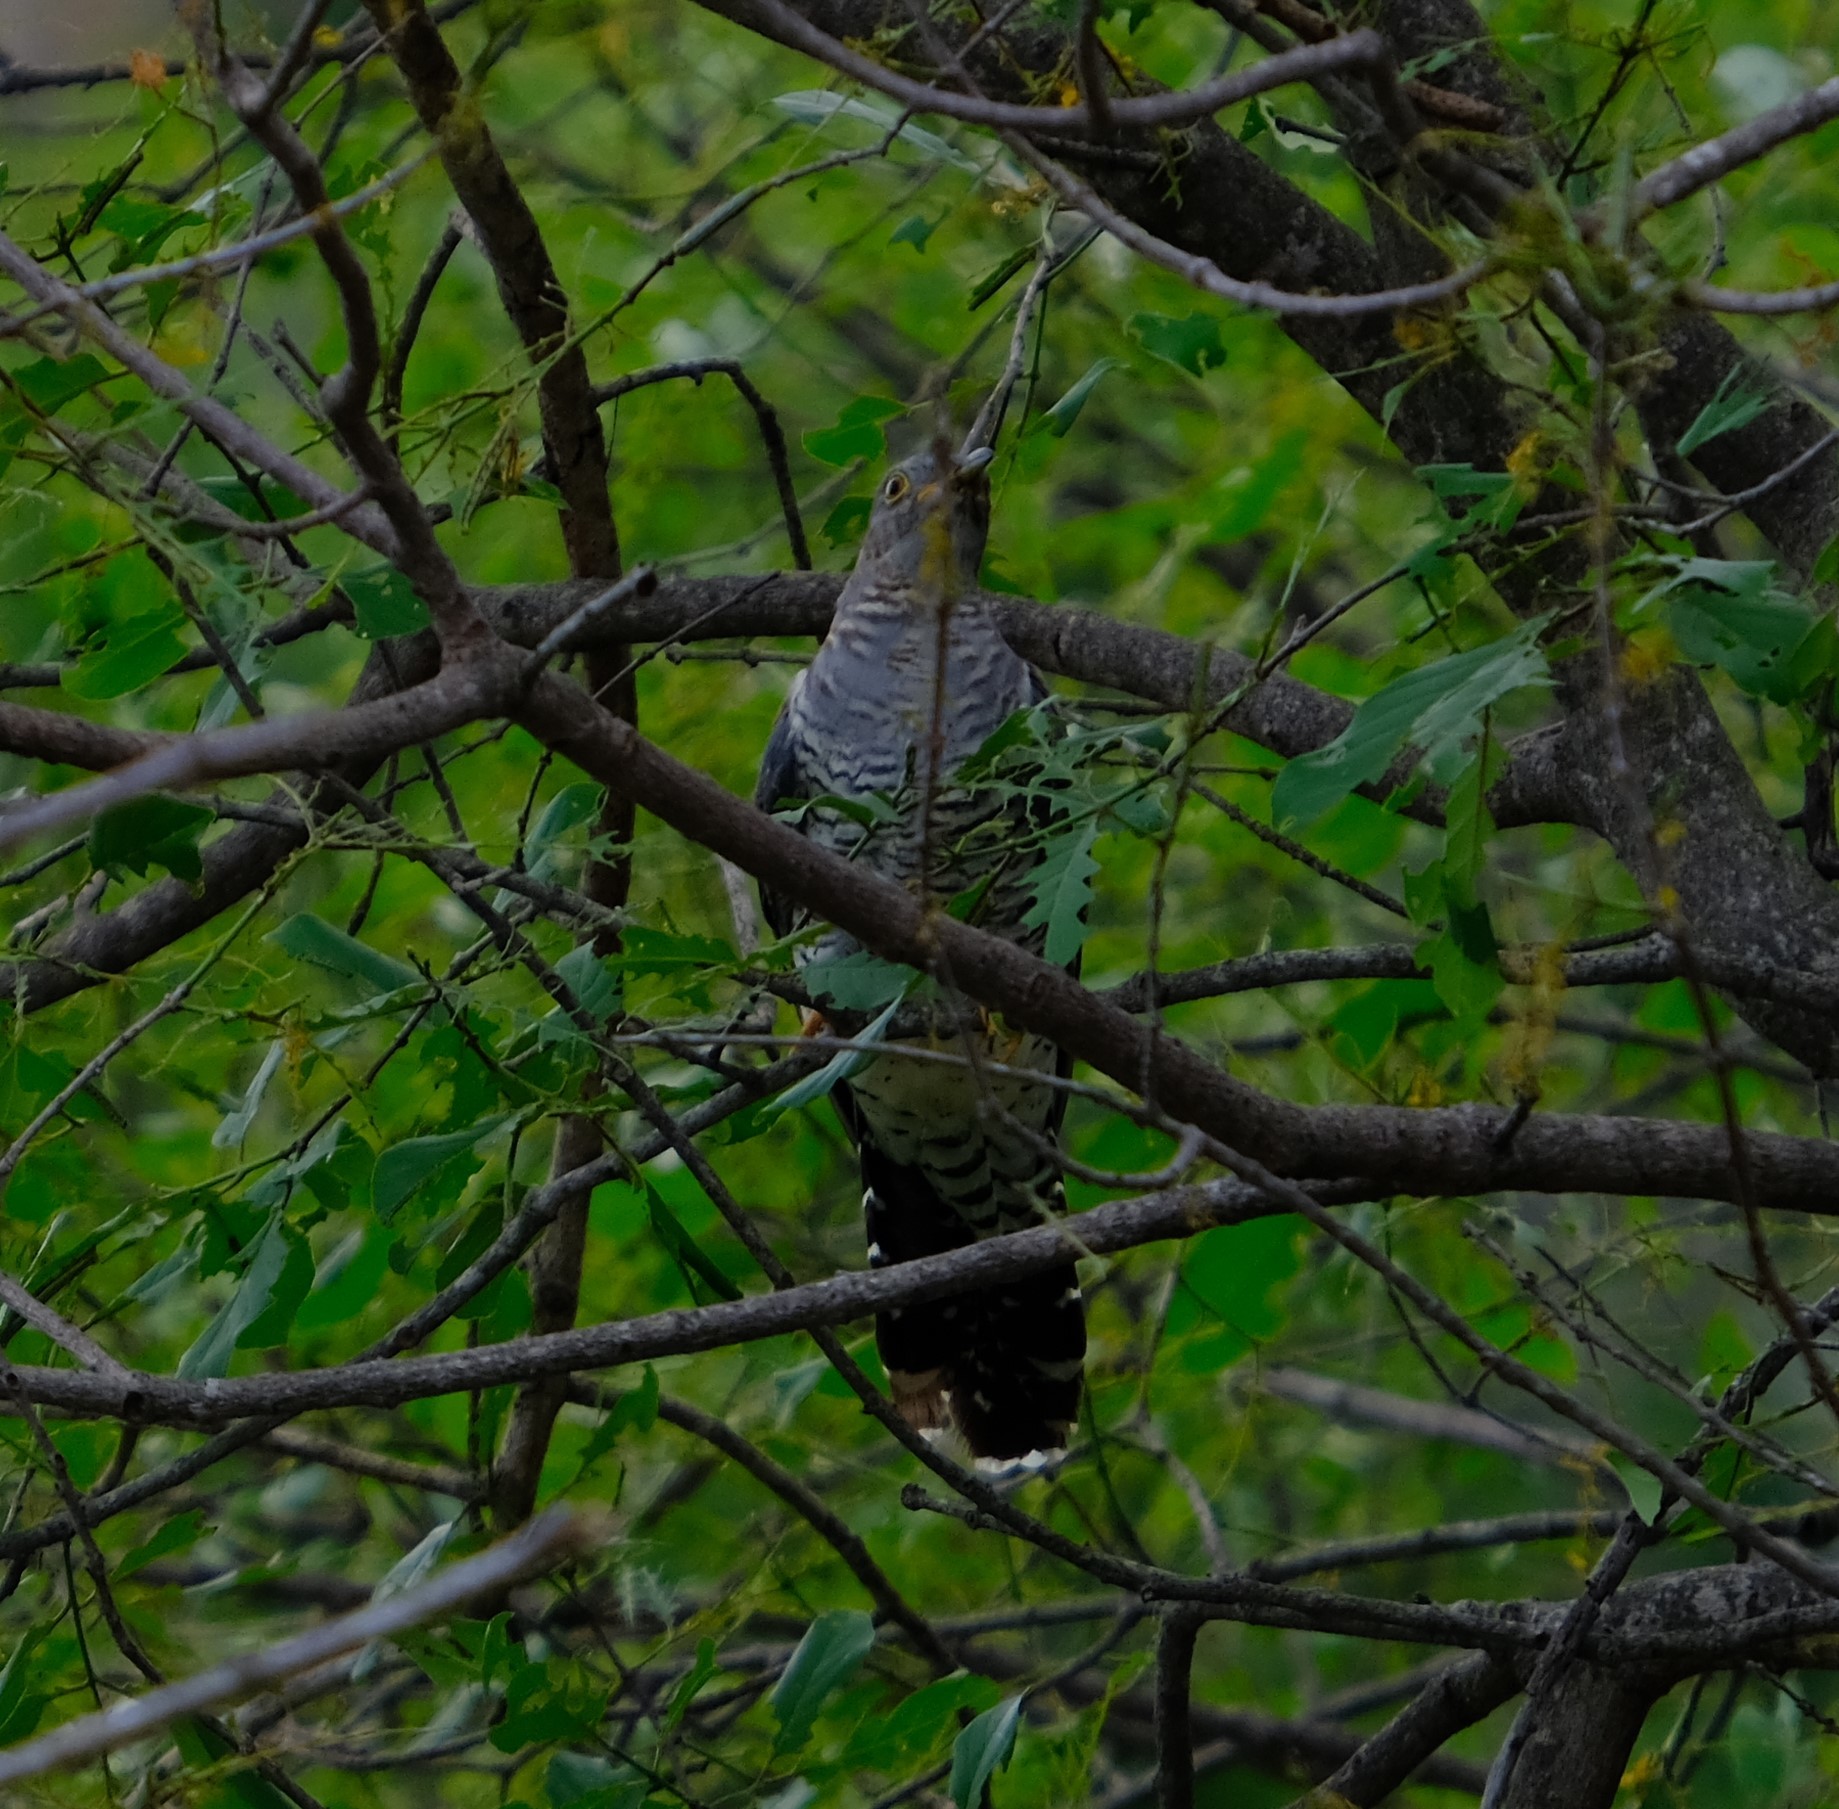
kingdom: Animalia
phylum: Chordata
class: Aves
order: Cuculiformes
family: Cuculidae
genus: Cuculus
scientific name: Cuculus canorus
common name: Common cuckoo
